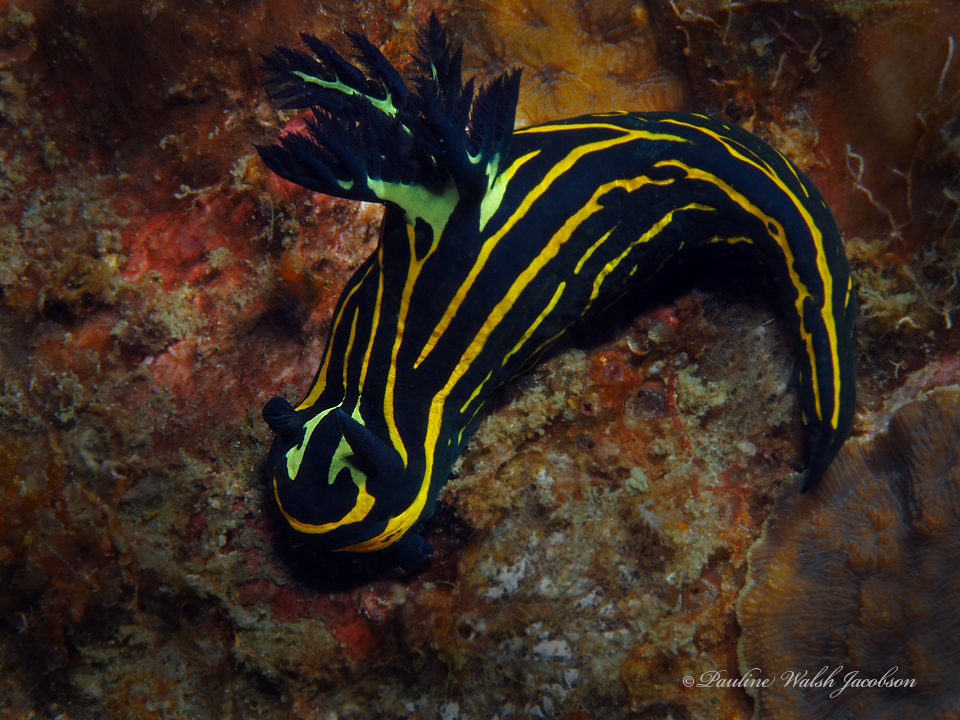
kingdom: Animalia
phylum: Mollusca
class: Gastropoda
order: Nudibranchia
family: Polyceridae
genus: Tyrannodoris
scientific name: Tyrannodoris luteolineata
